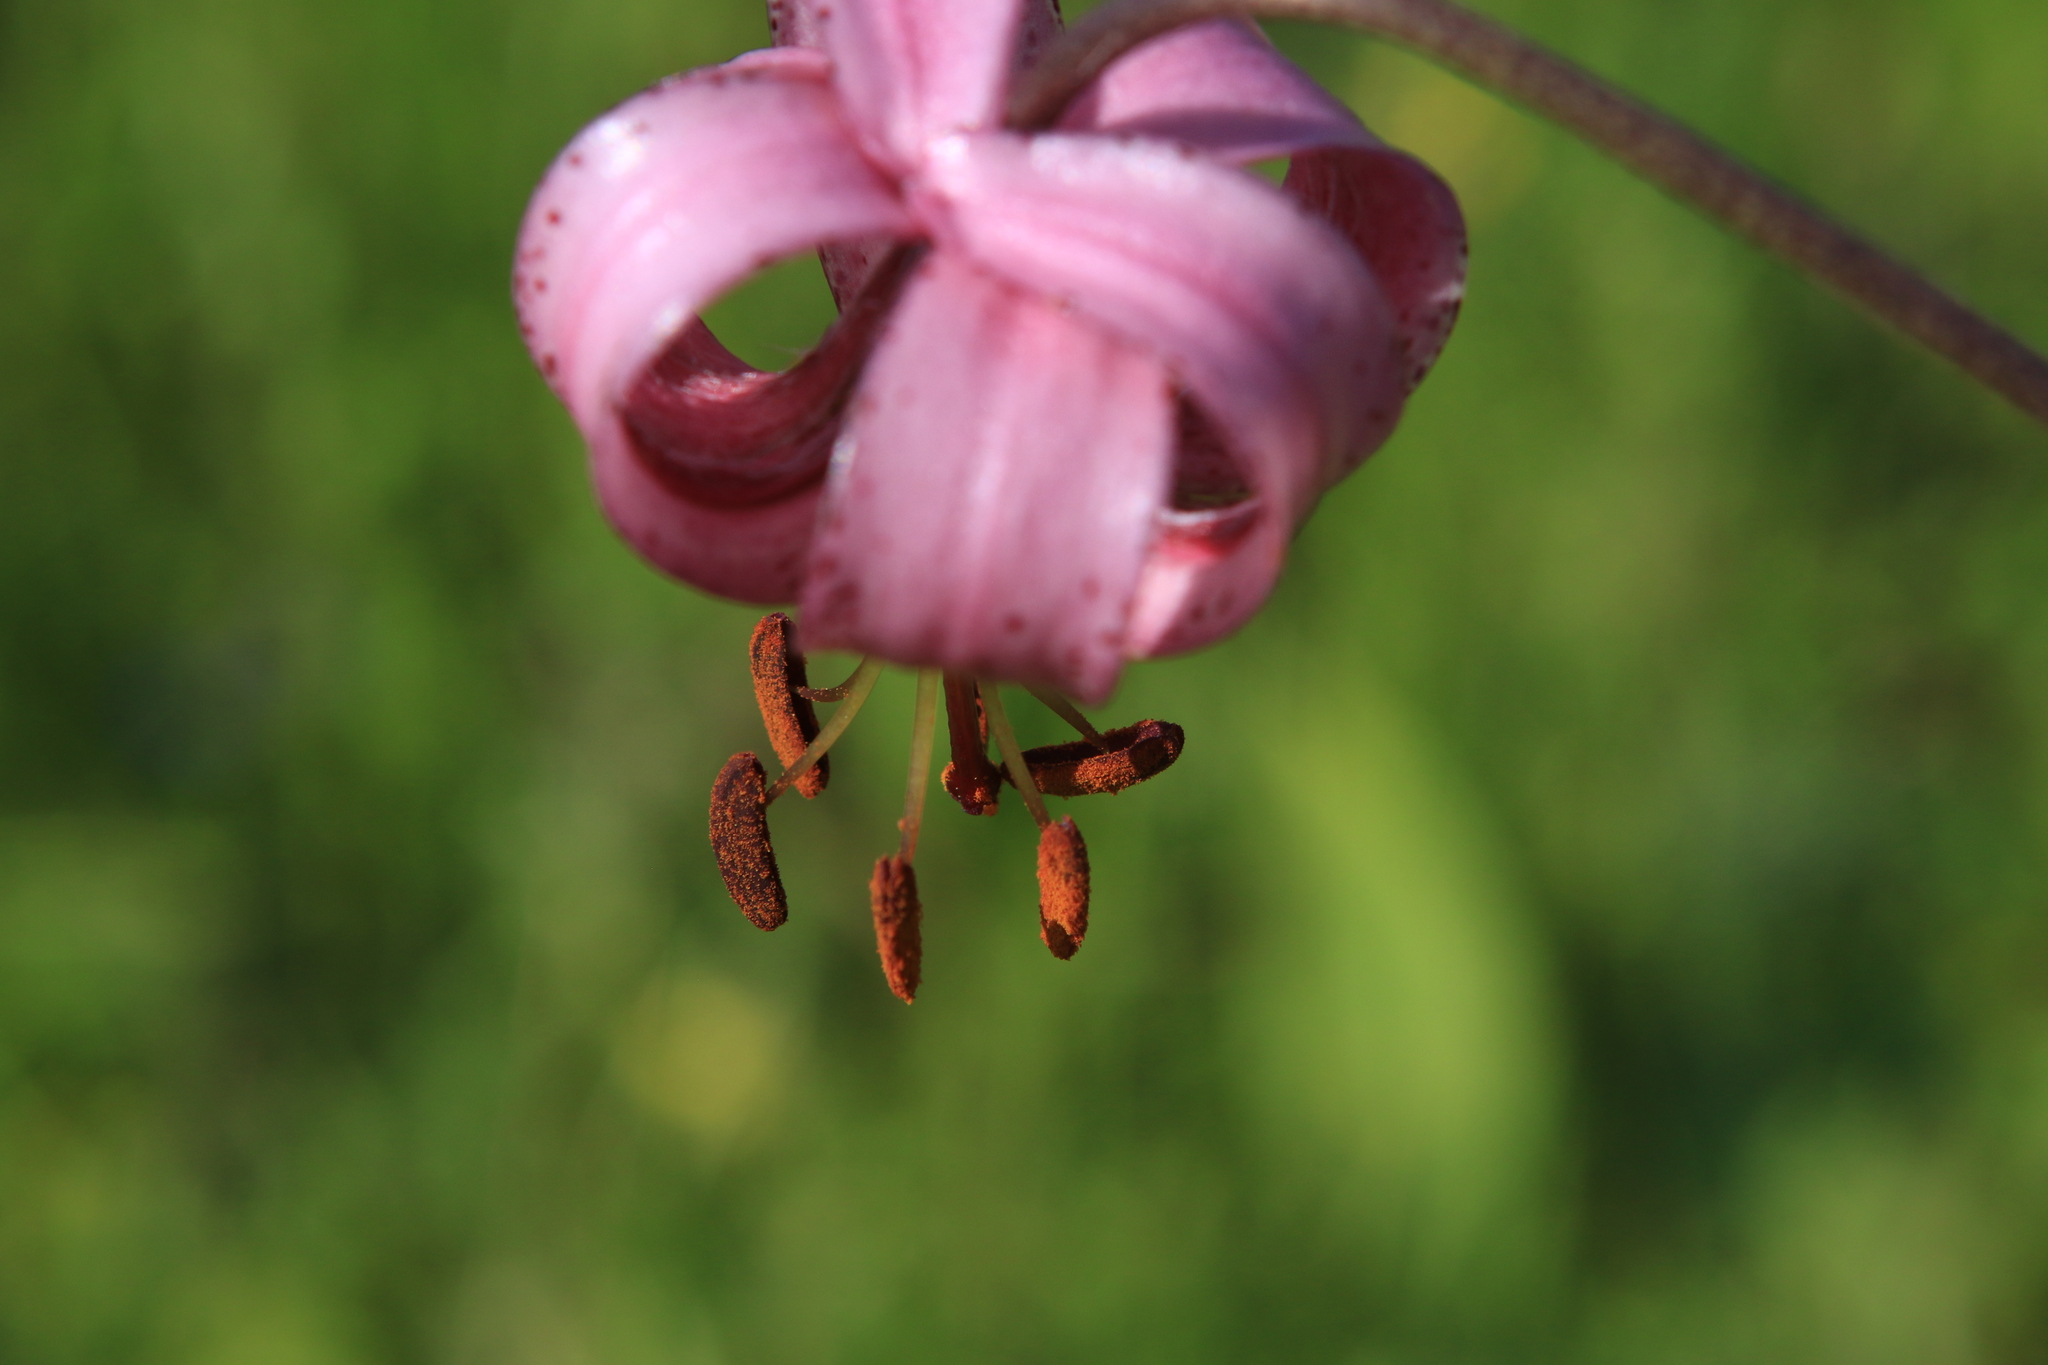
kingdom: Plantae
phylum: Tracheophyta
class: Liliopsida
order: Liliales
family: Liliaceae
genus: Lilium
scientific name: Lilium martagon
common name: Martagon lily
